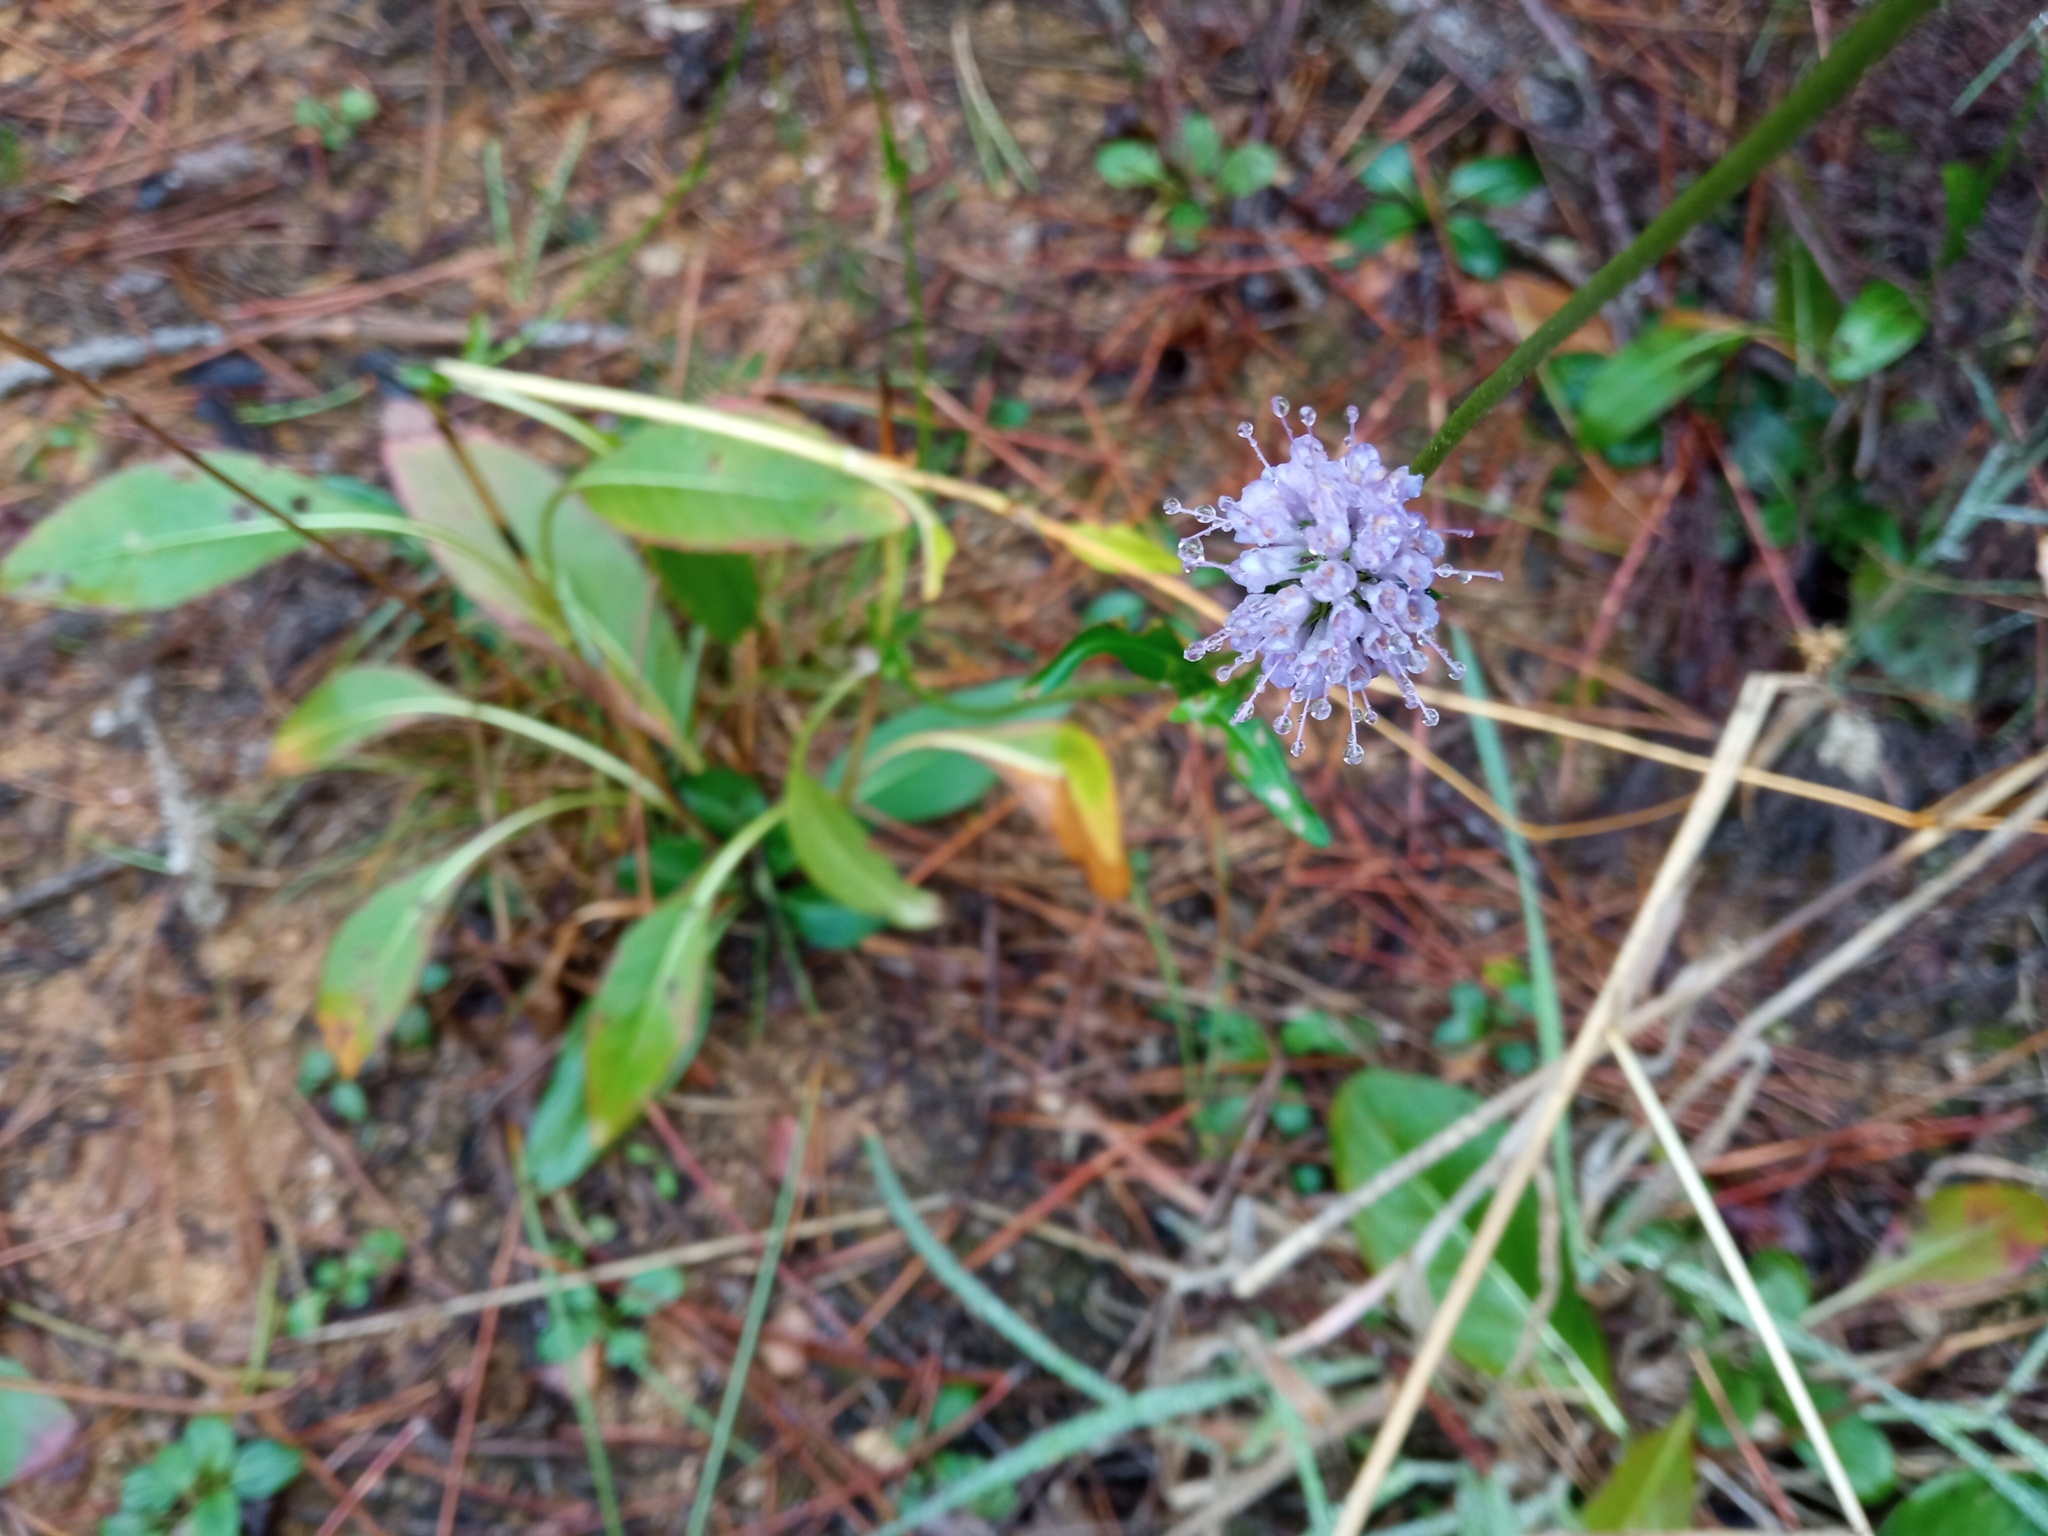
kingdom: Plantae
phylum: Tracheophyta
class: Magnoliopsida
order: Dipsacales
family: Caprifoliaceae
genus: Succisa
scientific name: Succisa pratensis
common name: Devil's-bit
